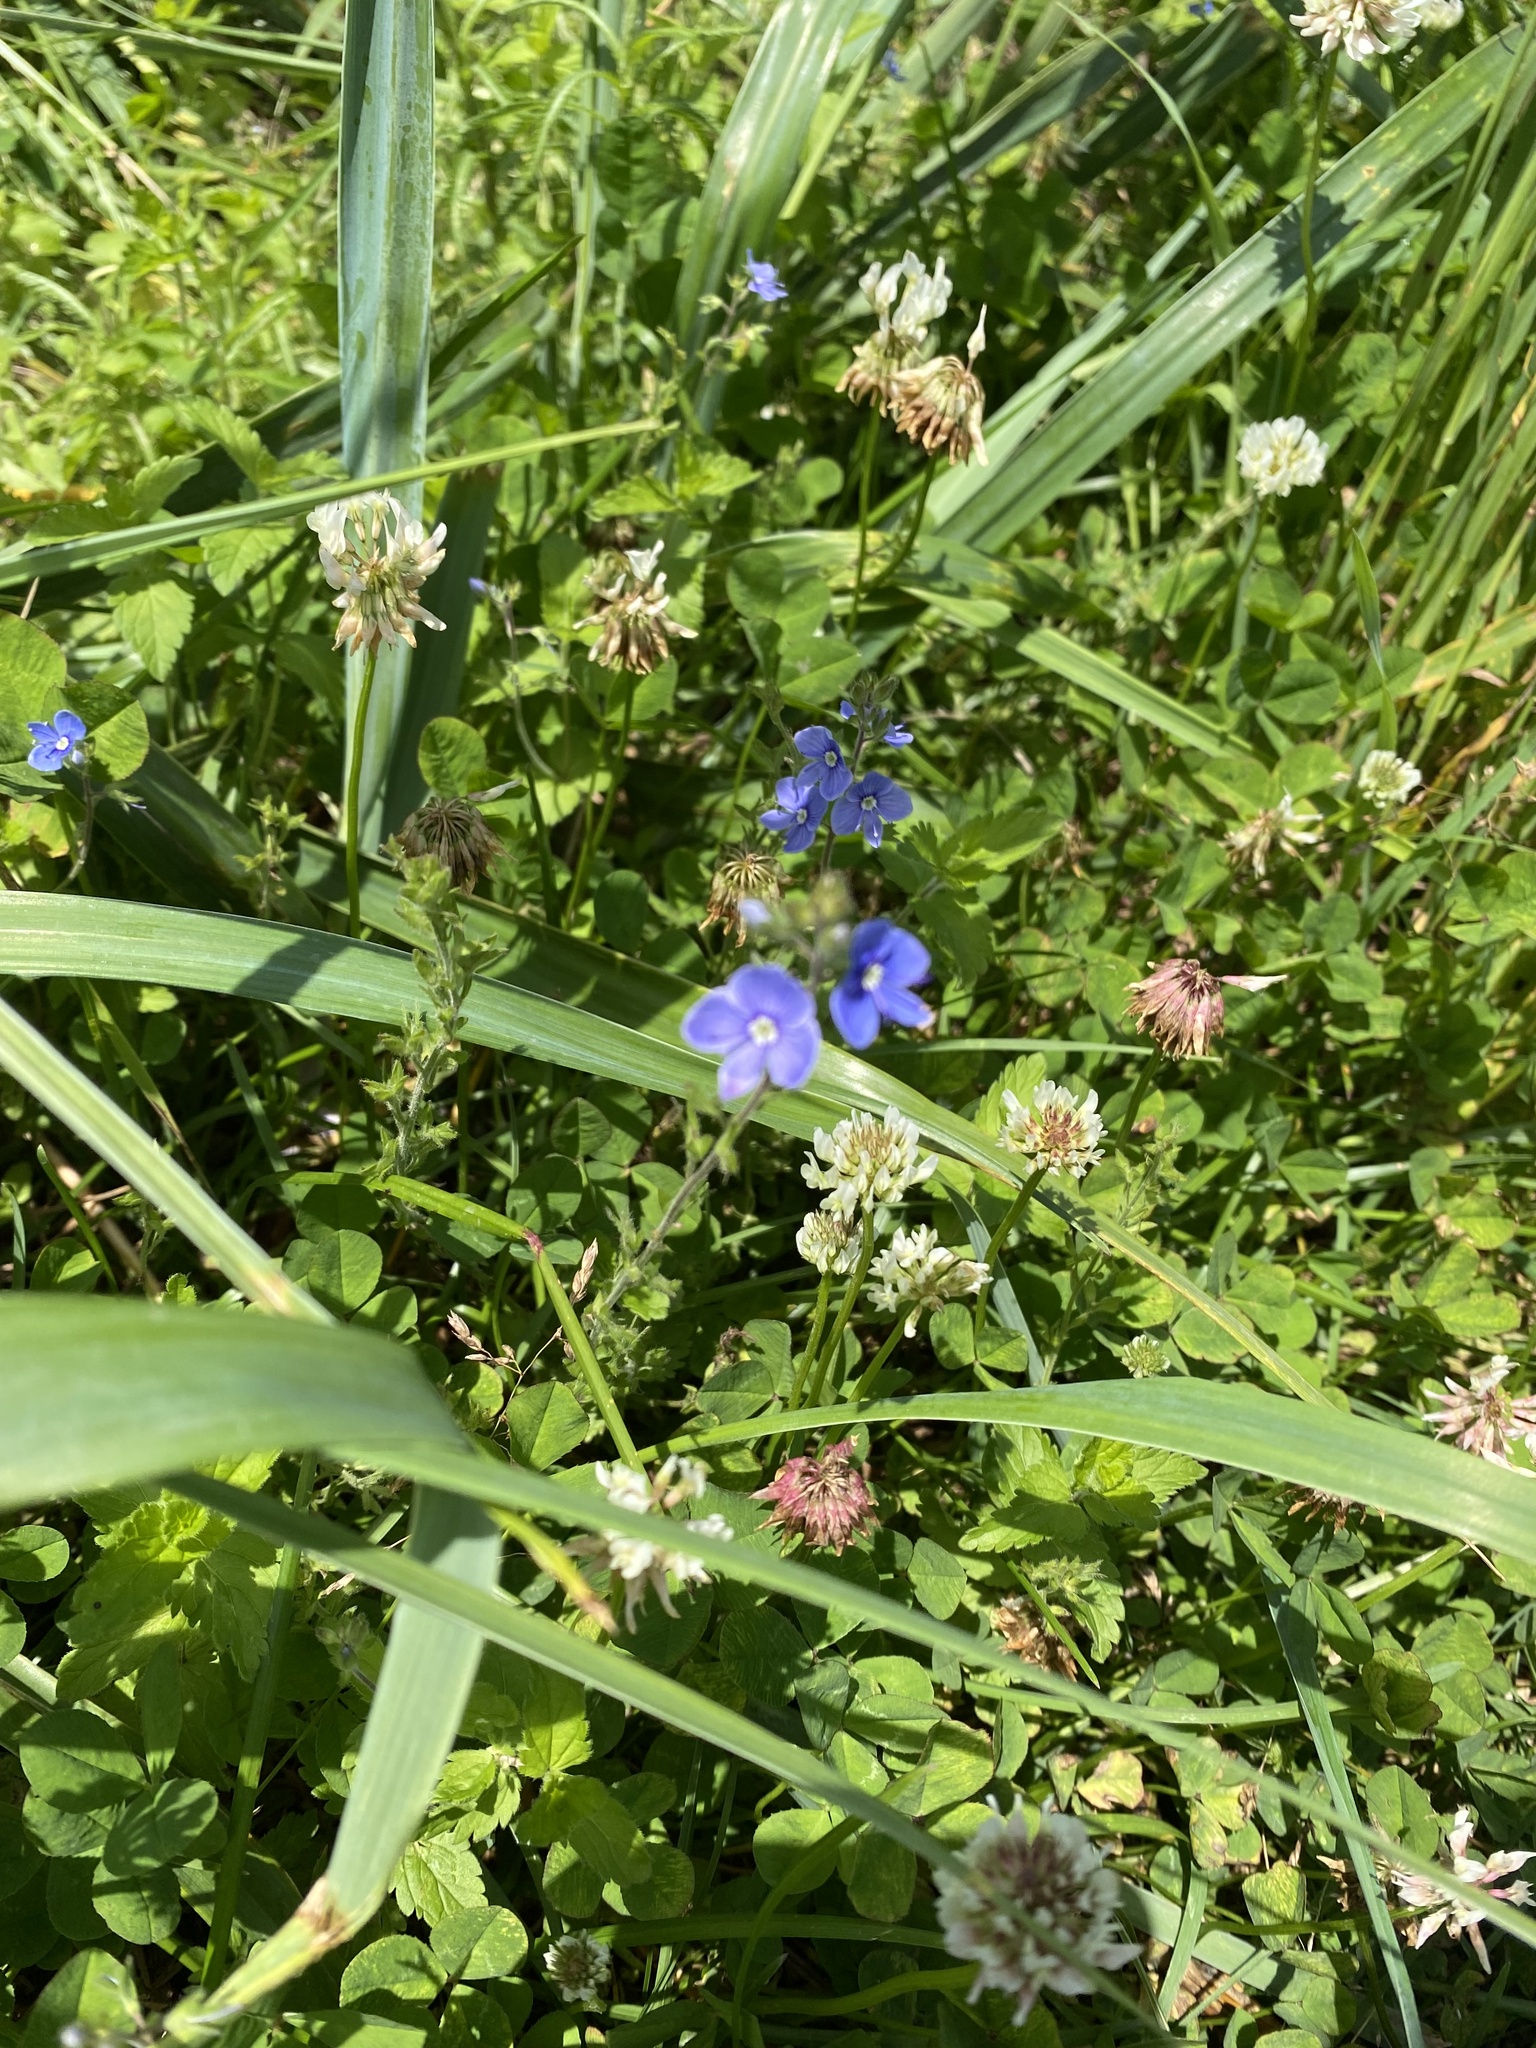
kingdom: Plantae
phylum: Tracheophyta
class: Magnoliopsida
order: Lamiales
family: Plantaginaceae
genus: Veronica
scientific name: Veronica chamaedrys
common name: Germander speedwell
